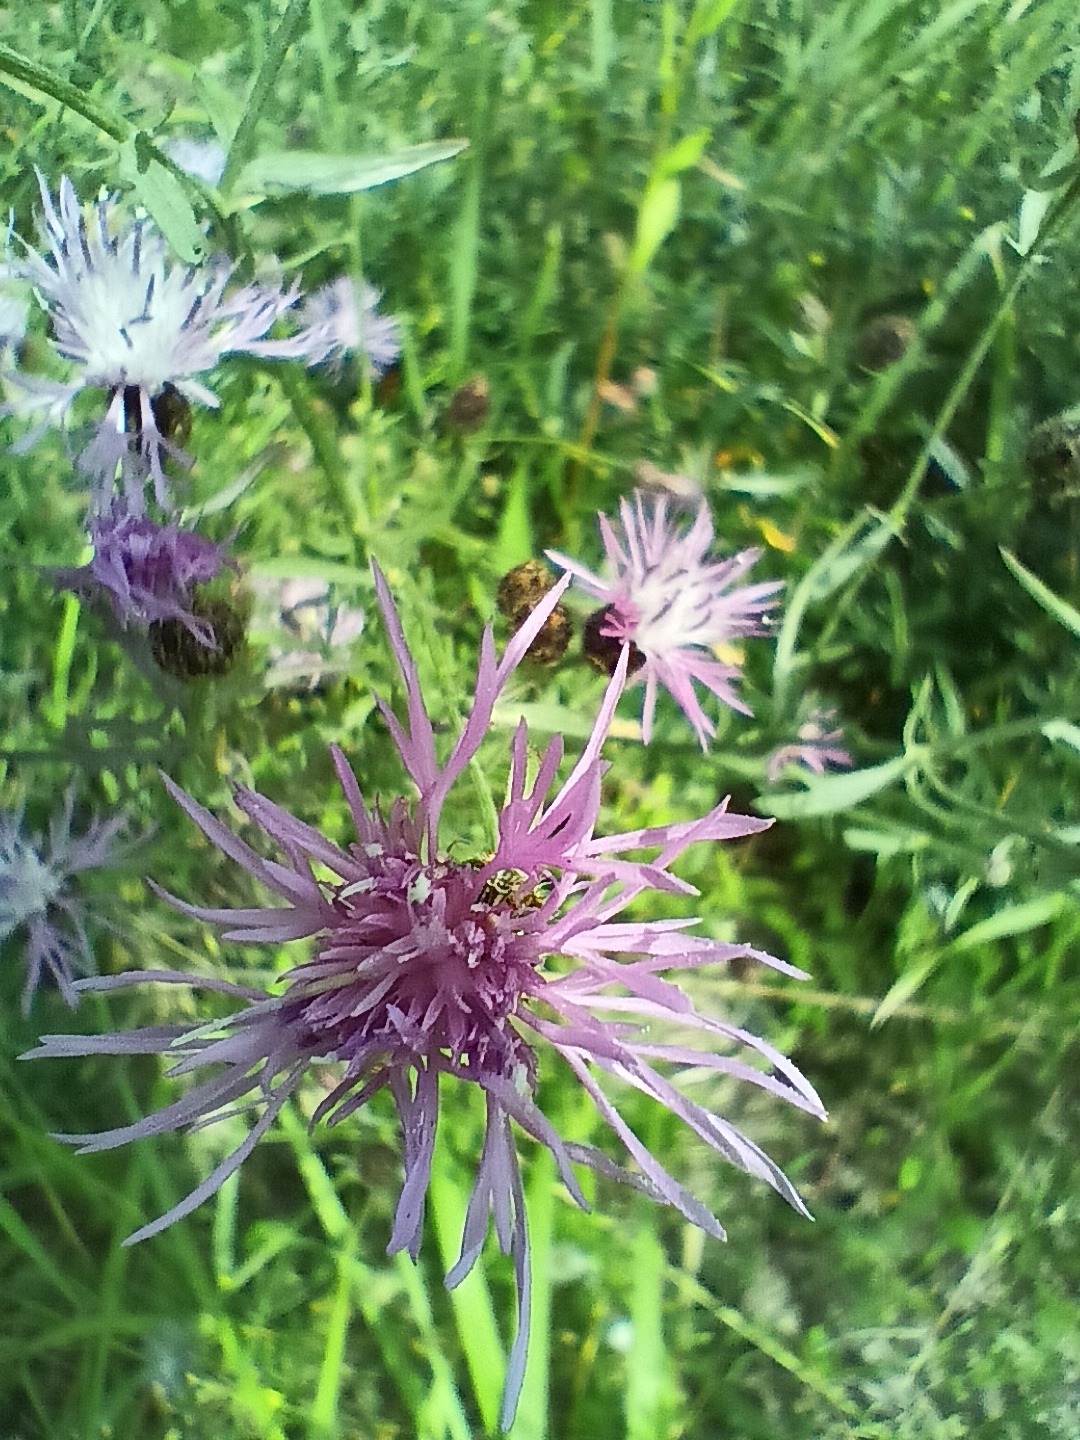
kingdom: Plantae
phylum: Tracheophyta
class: Magnoliopsida
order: Asterales
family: Asteraceae
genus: Centaurea
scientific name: Centaurea stoebe
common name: Spotted knapweed
